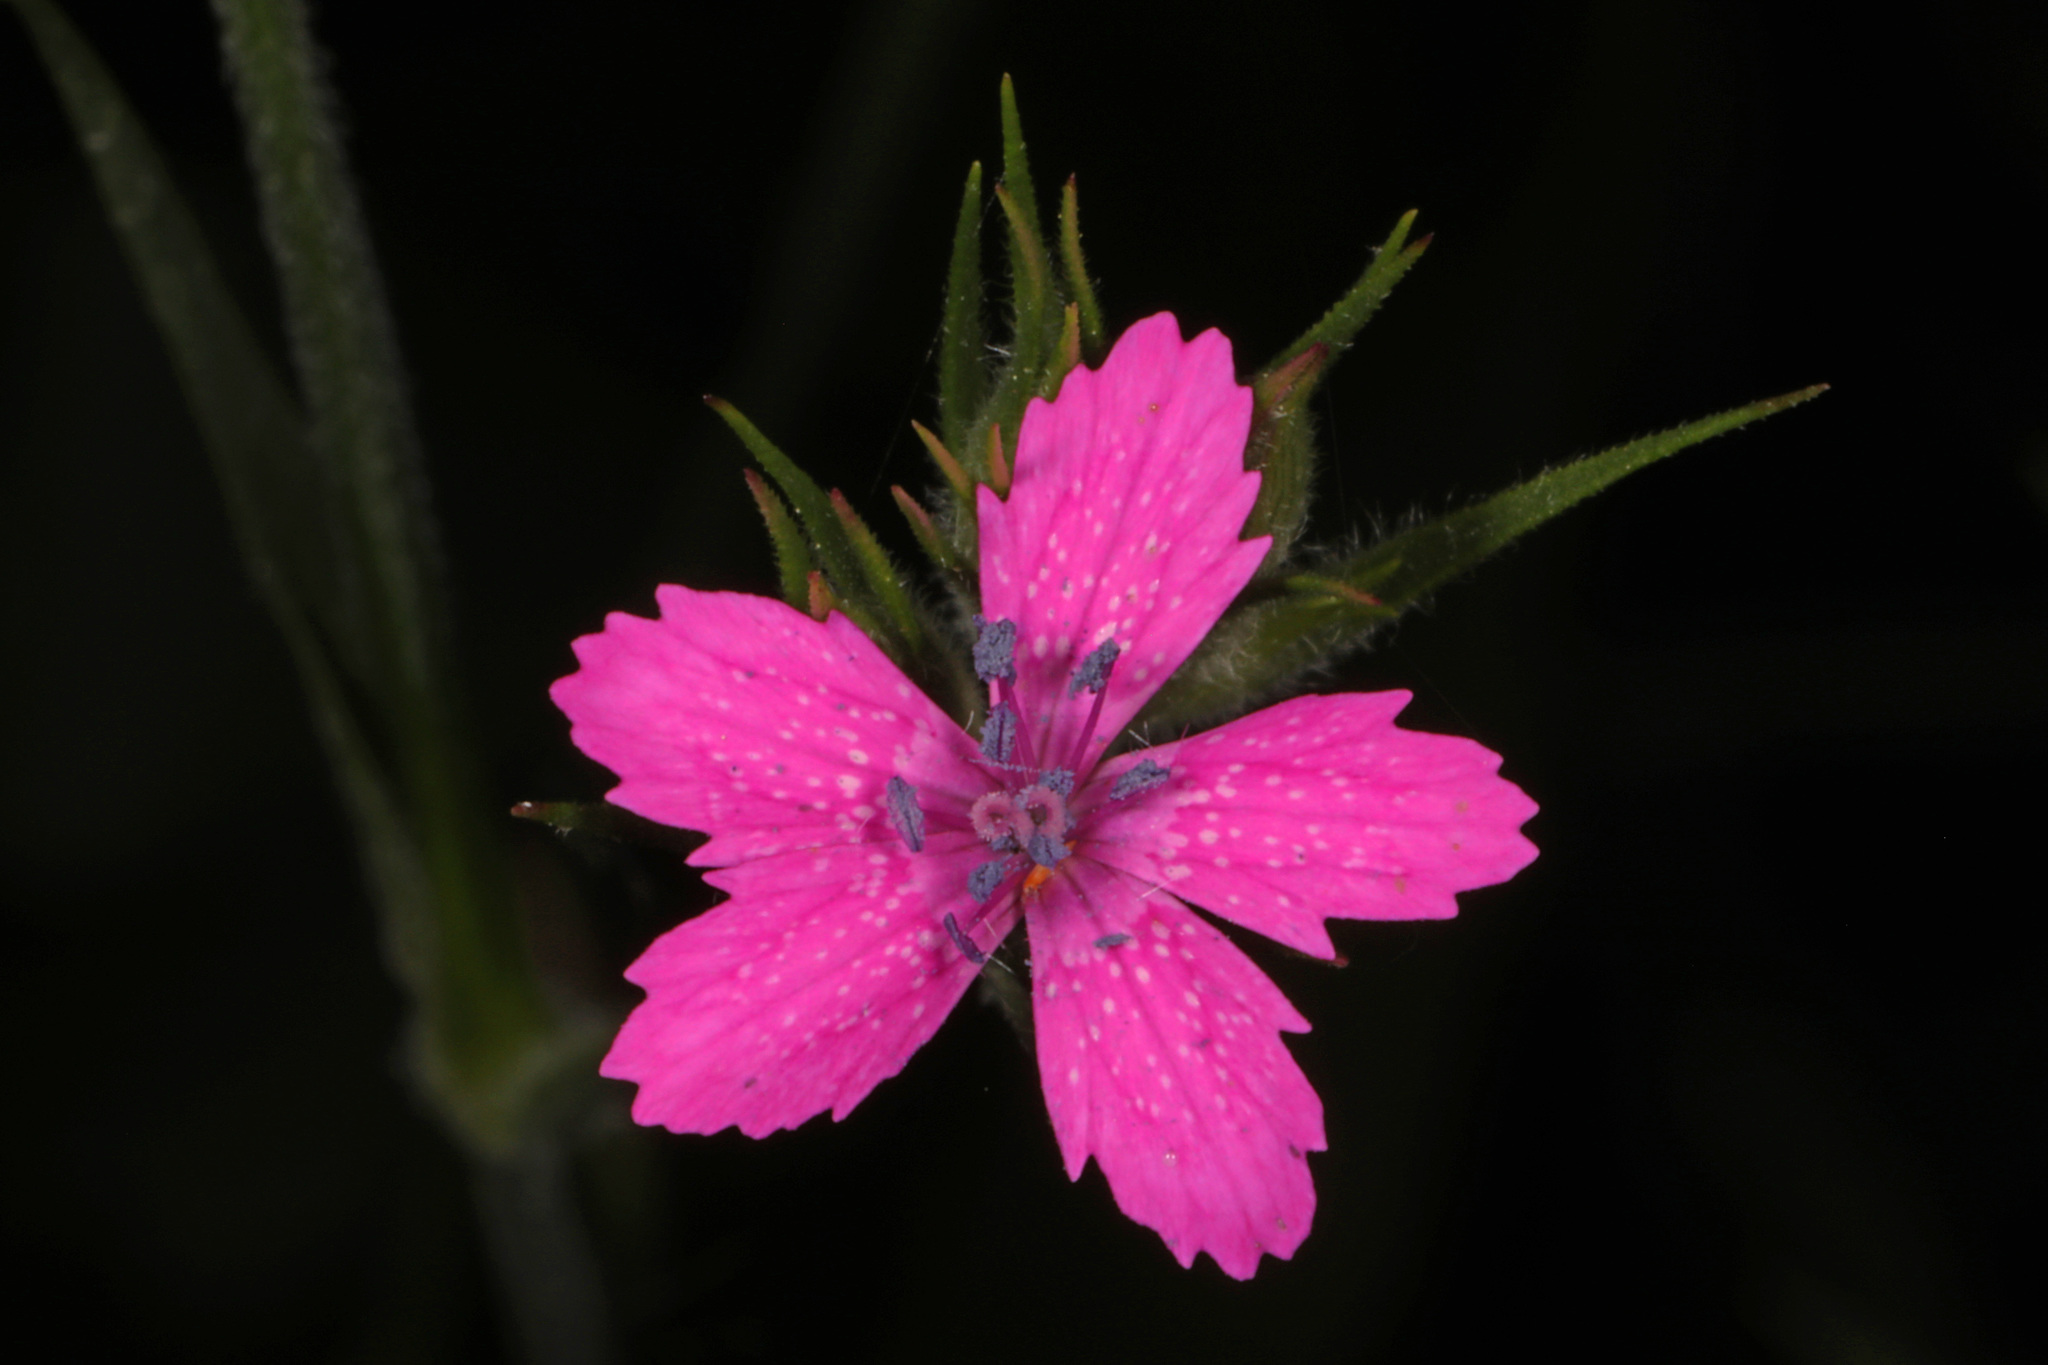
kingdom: Plantae
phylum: Tracheophyta
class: Magnoliopsida
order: Caryophyllales
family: Caryophyllaceae
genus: Dianthus
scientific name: Dianthus armeria
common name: Deptford pink
